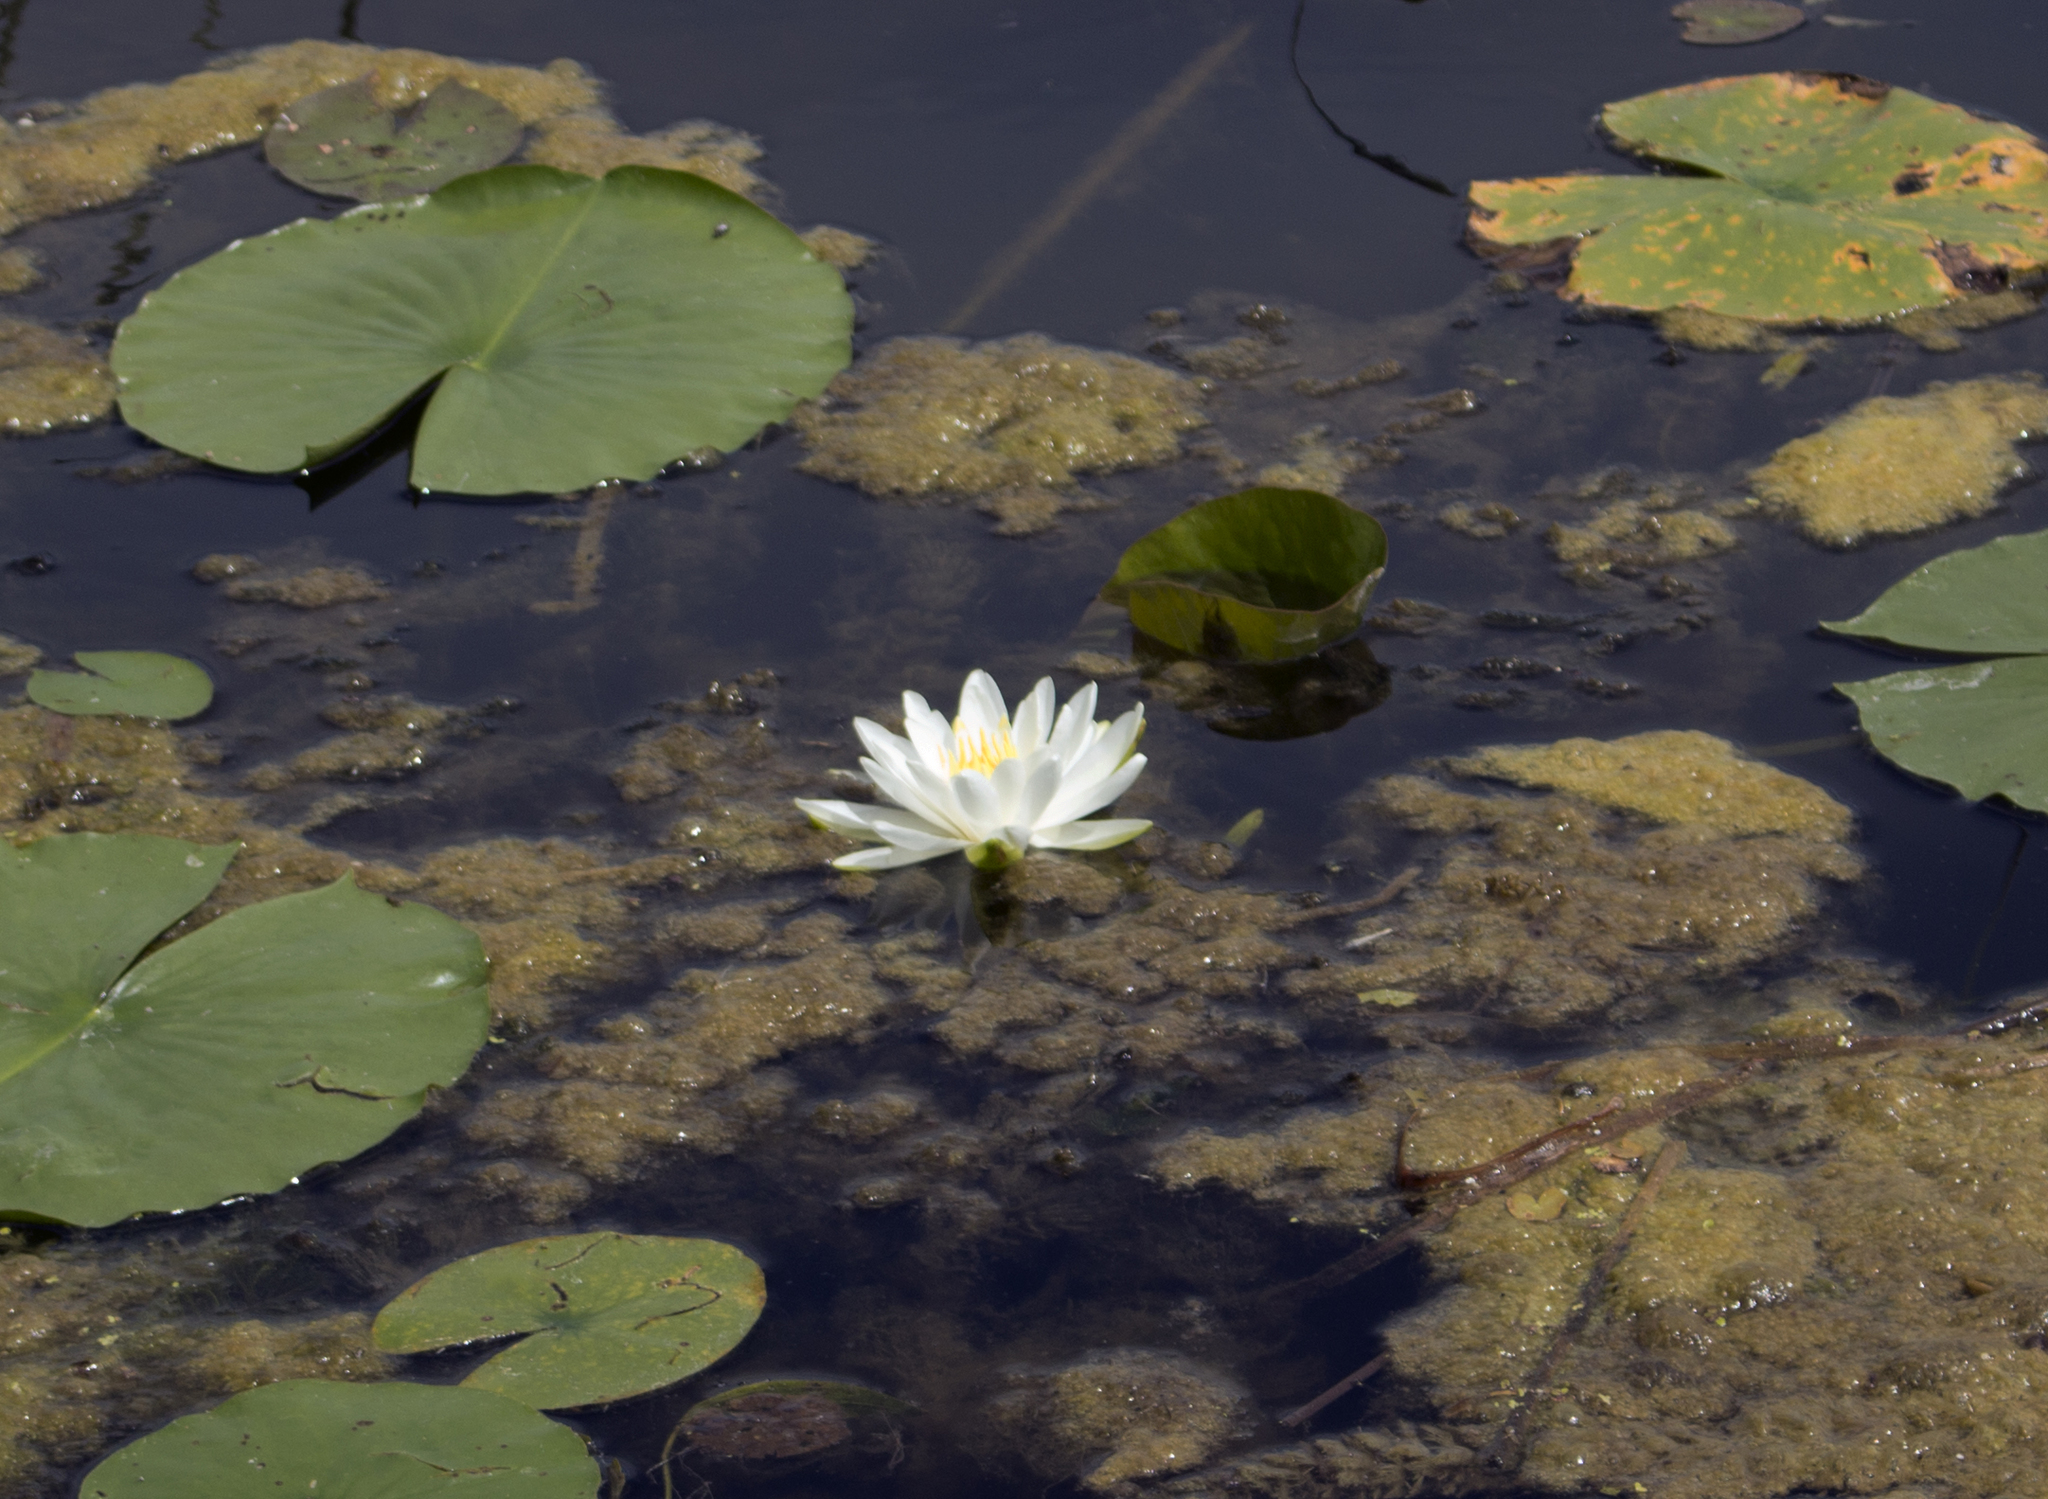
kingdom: Plantae
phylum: Tracheophyta
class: Magnoliopsida
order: Nymphaeales
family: Nymphaeaceae
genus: Nymphaea
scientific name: Nymphaea odorata
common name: Fragrant water-lily
